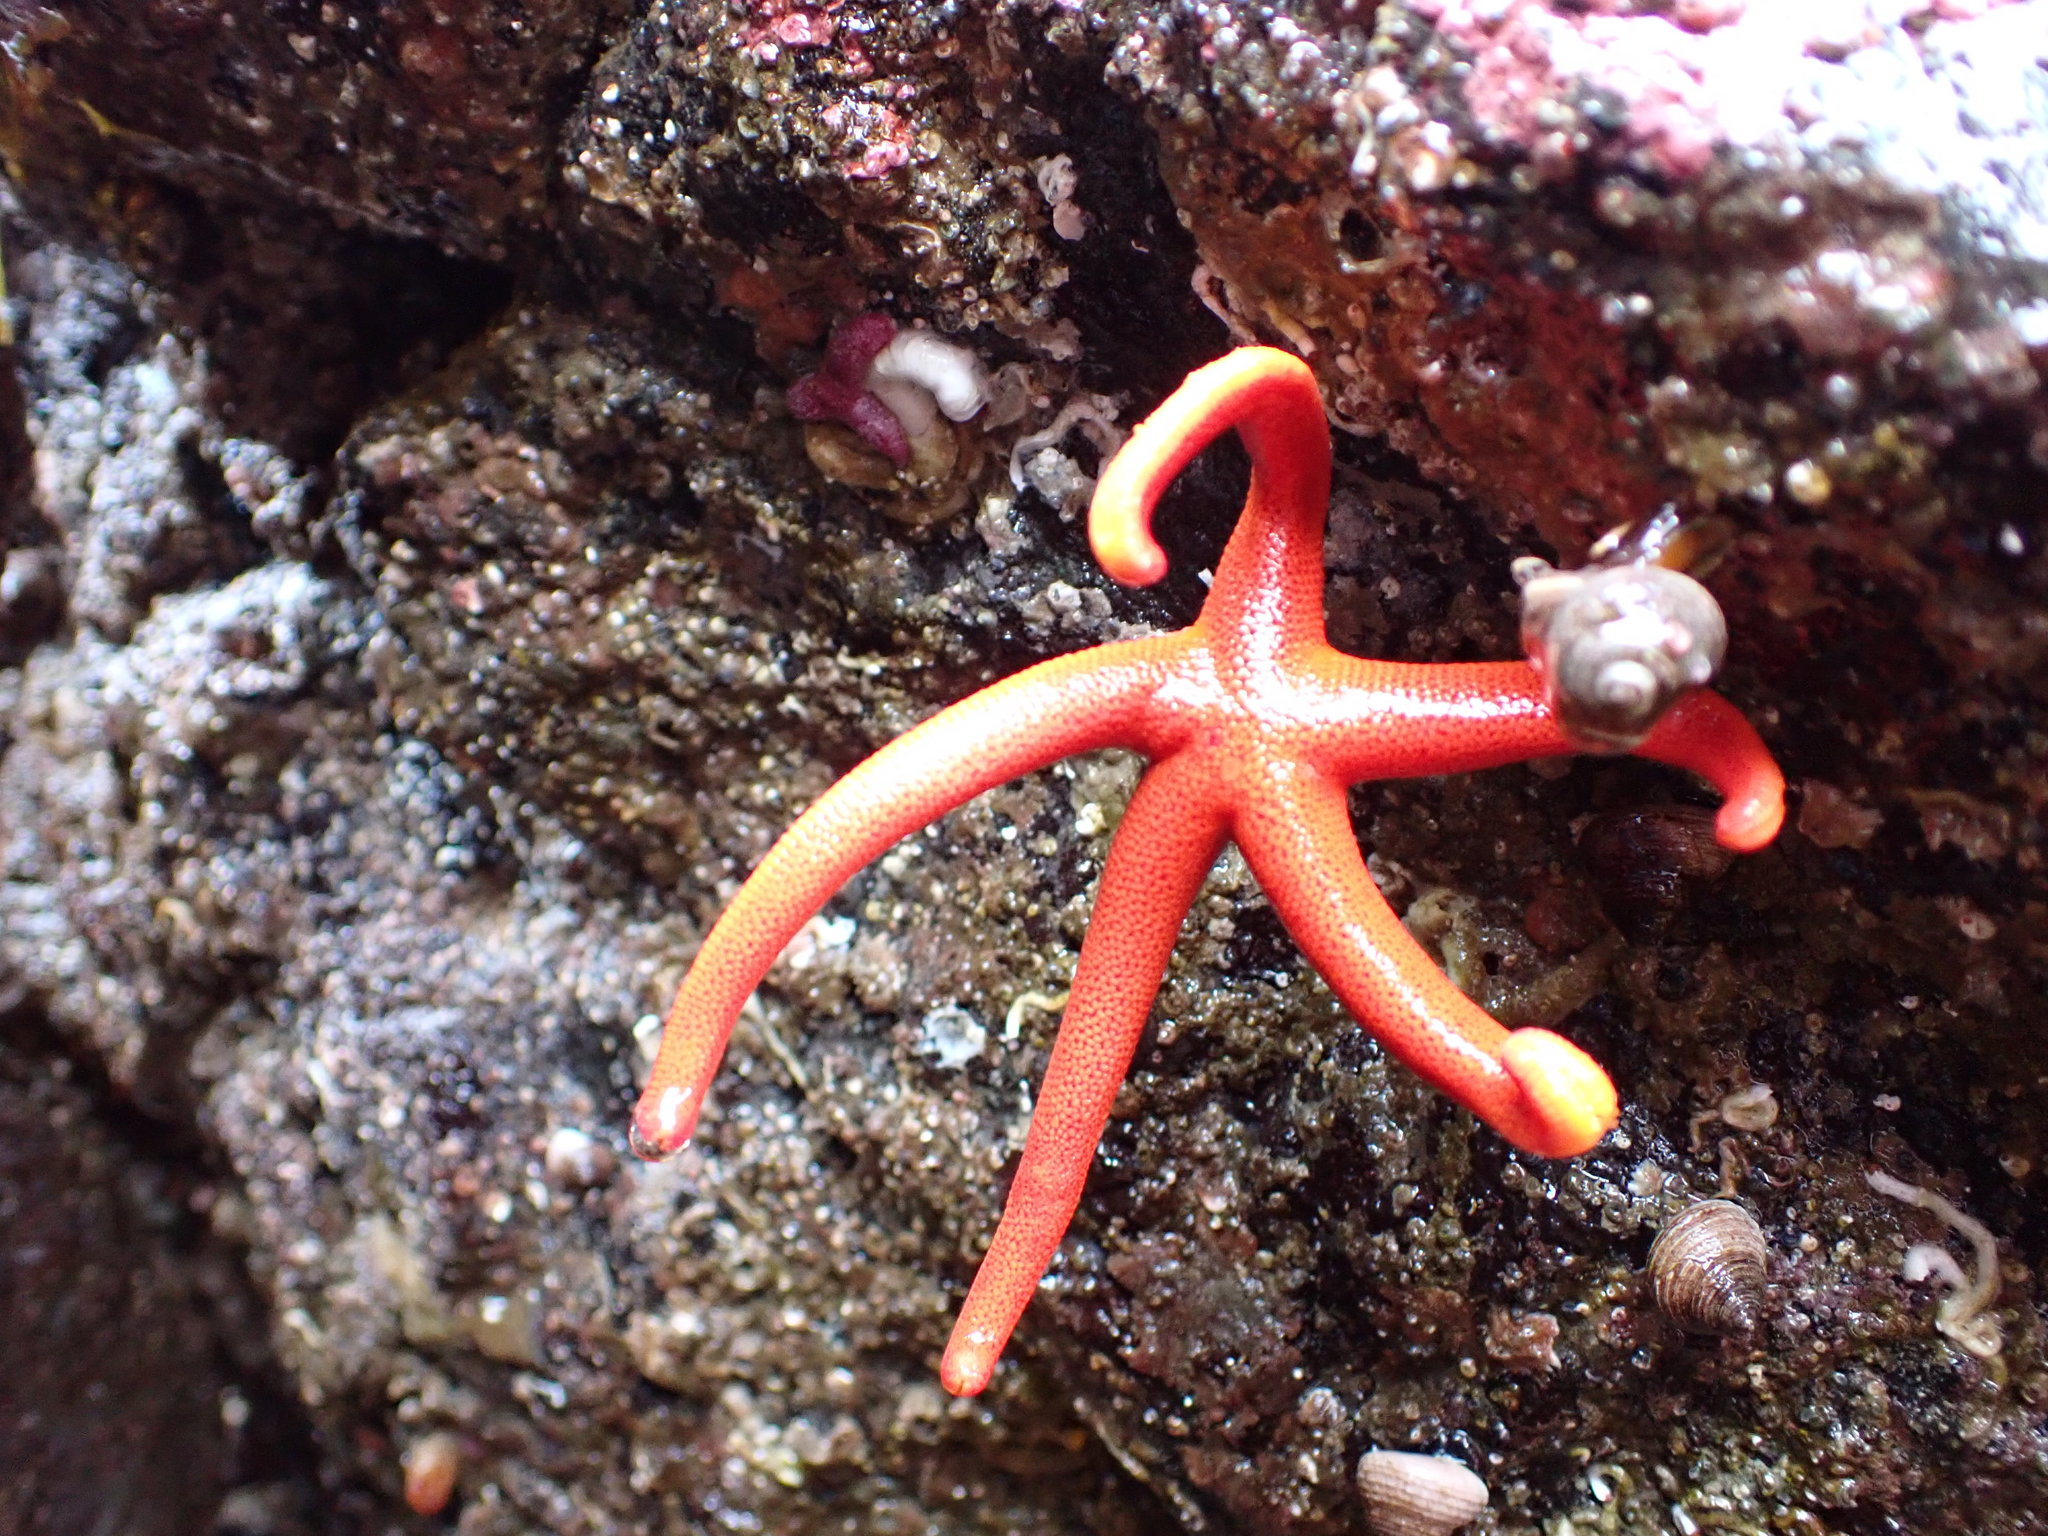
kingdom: Animalia
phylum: Echinodermata
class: Asteroidea
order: Spinulosida
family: Echinasteridae
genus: Henricia
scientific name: Henricia leviuscula
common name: Pacific blood star
